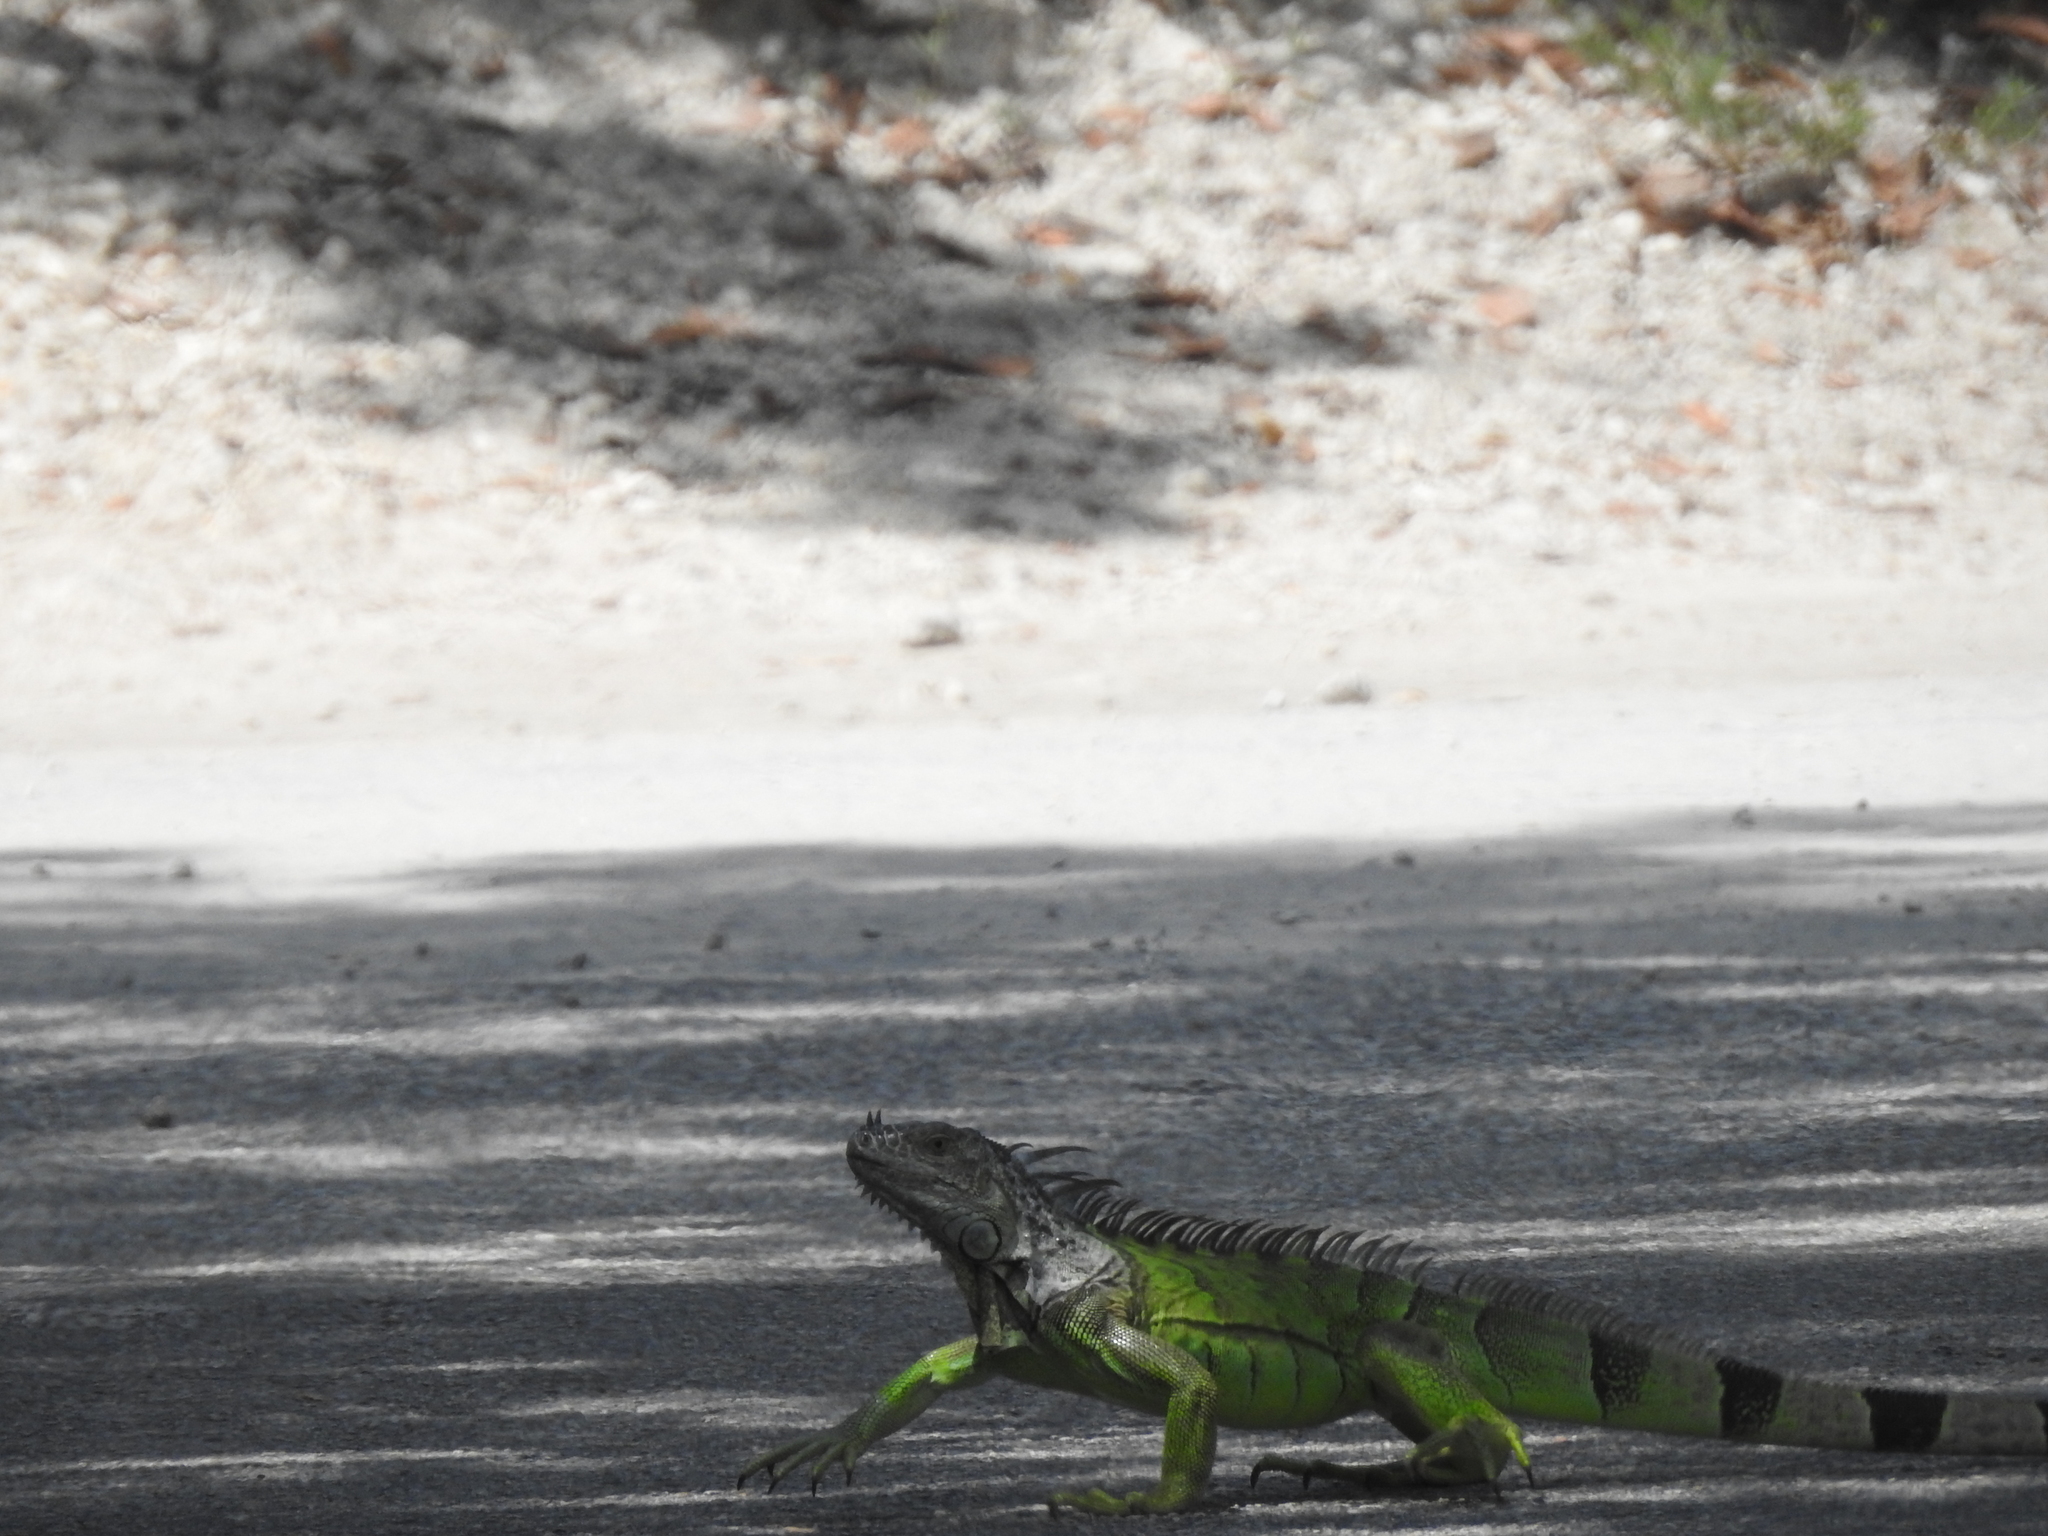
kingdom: Animalia
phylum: Chordata
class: Squamata
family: Iguanidae
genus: Iguana
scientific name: Iguana iguana
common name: Green iguana
